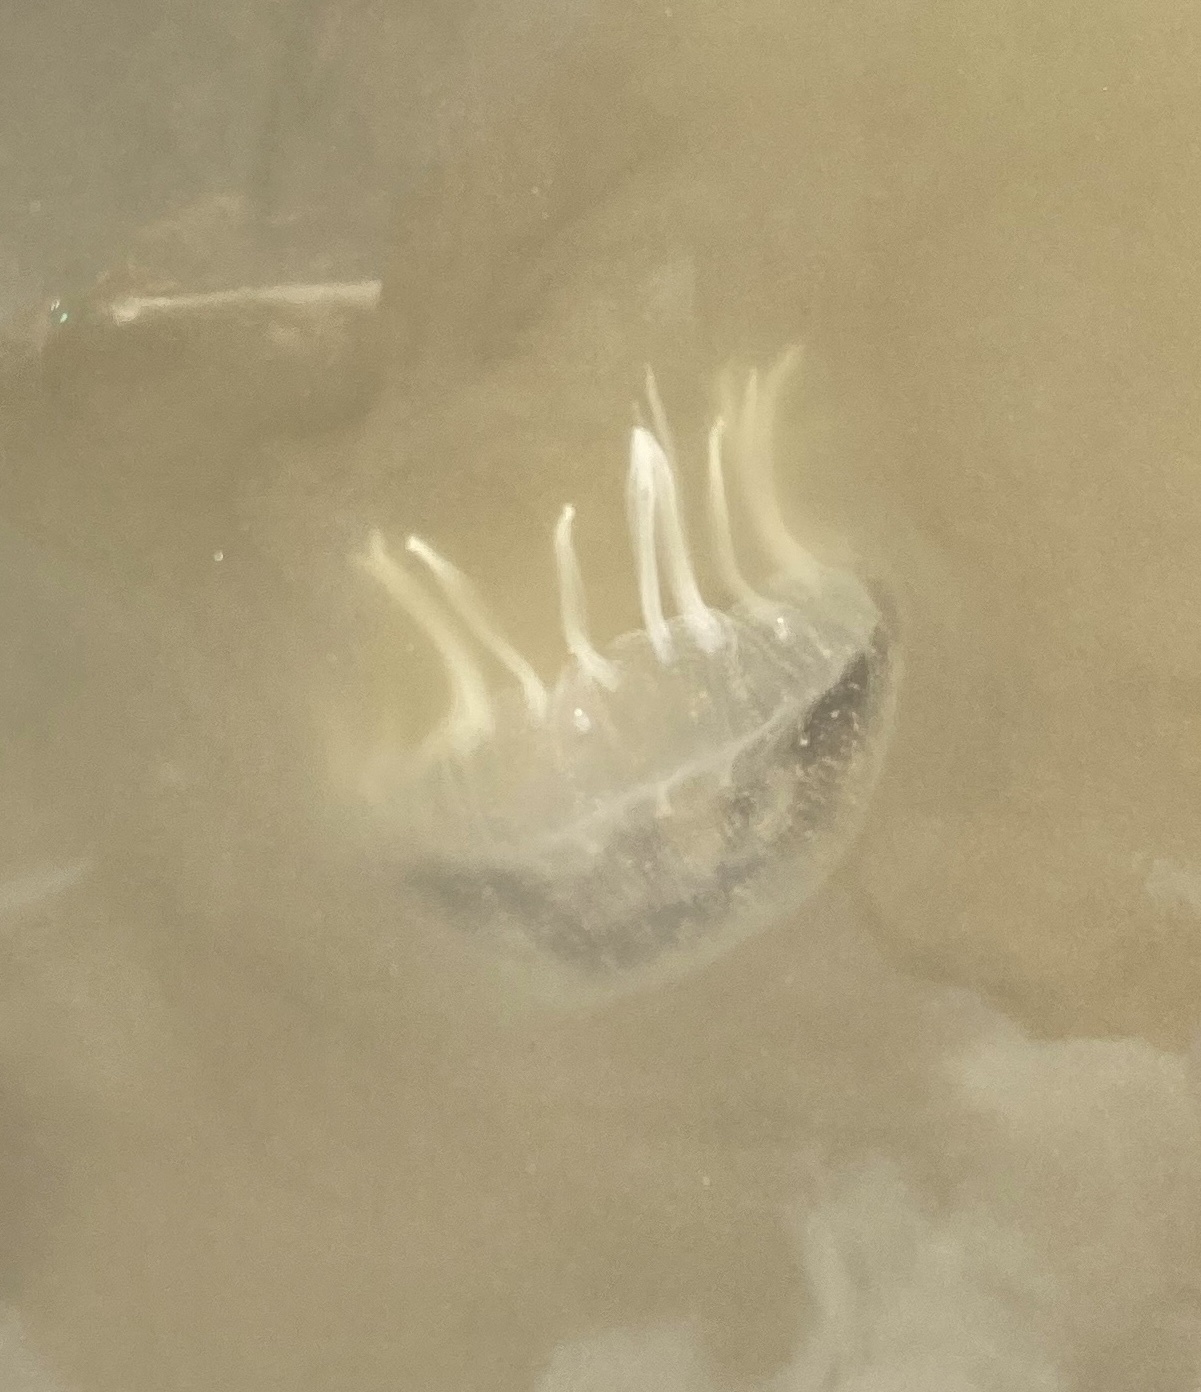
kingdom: Animalia
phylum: Cnidaria
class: Scyphozoa
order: Semaeostomeae
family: Pelagiidae
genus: Chrysaora
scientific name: Chrysaora chesapeakei
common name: Bay nettle
